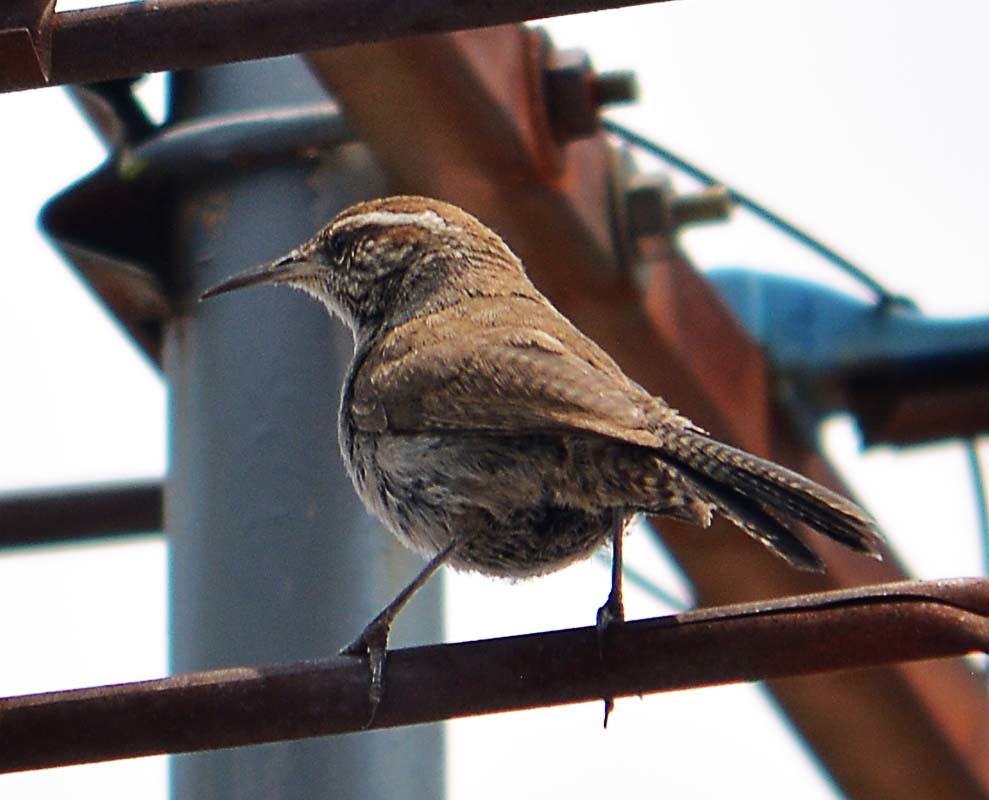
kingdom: Animalia
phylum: Chordata
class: Aves
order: Passeriformes
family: Troglodytidae
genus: Thryomanes
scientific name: Thryomanes bewickii
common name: Bewick's wren
